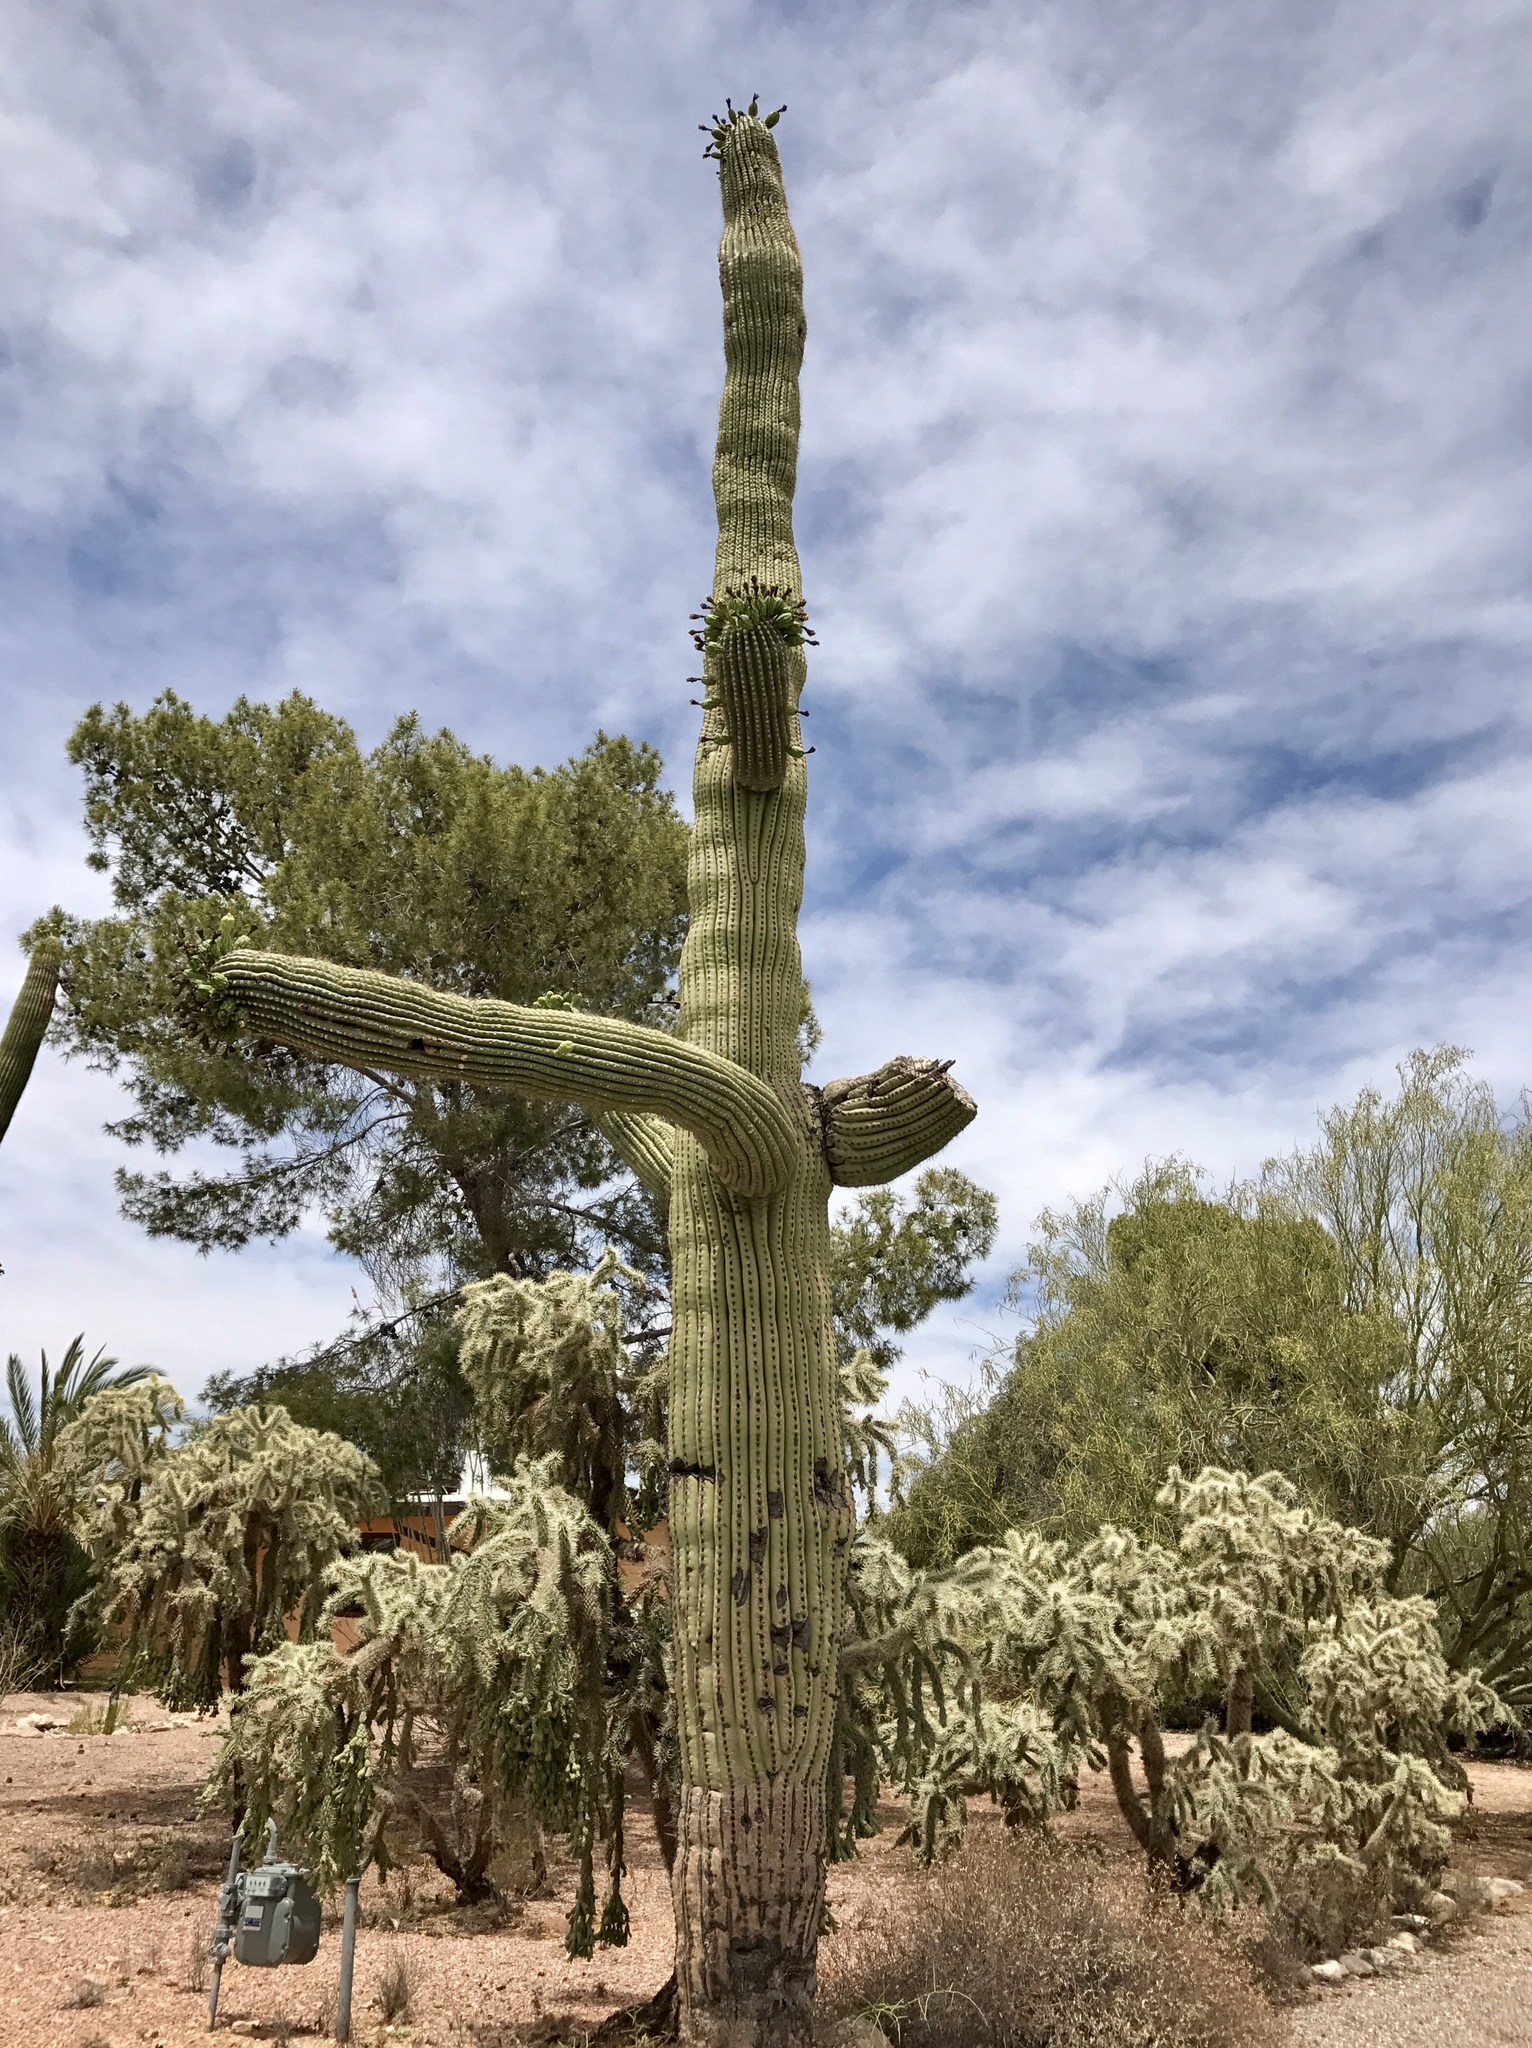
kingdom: Plantae
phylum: Tracheophyta
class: Magnoliopsida
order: Caryophyllales
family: Cactaceae
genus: Carnegiea
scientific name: Carnegiea gigantea
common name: Saguaro
